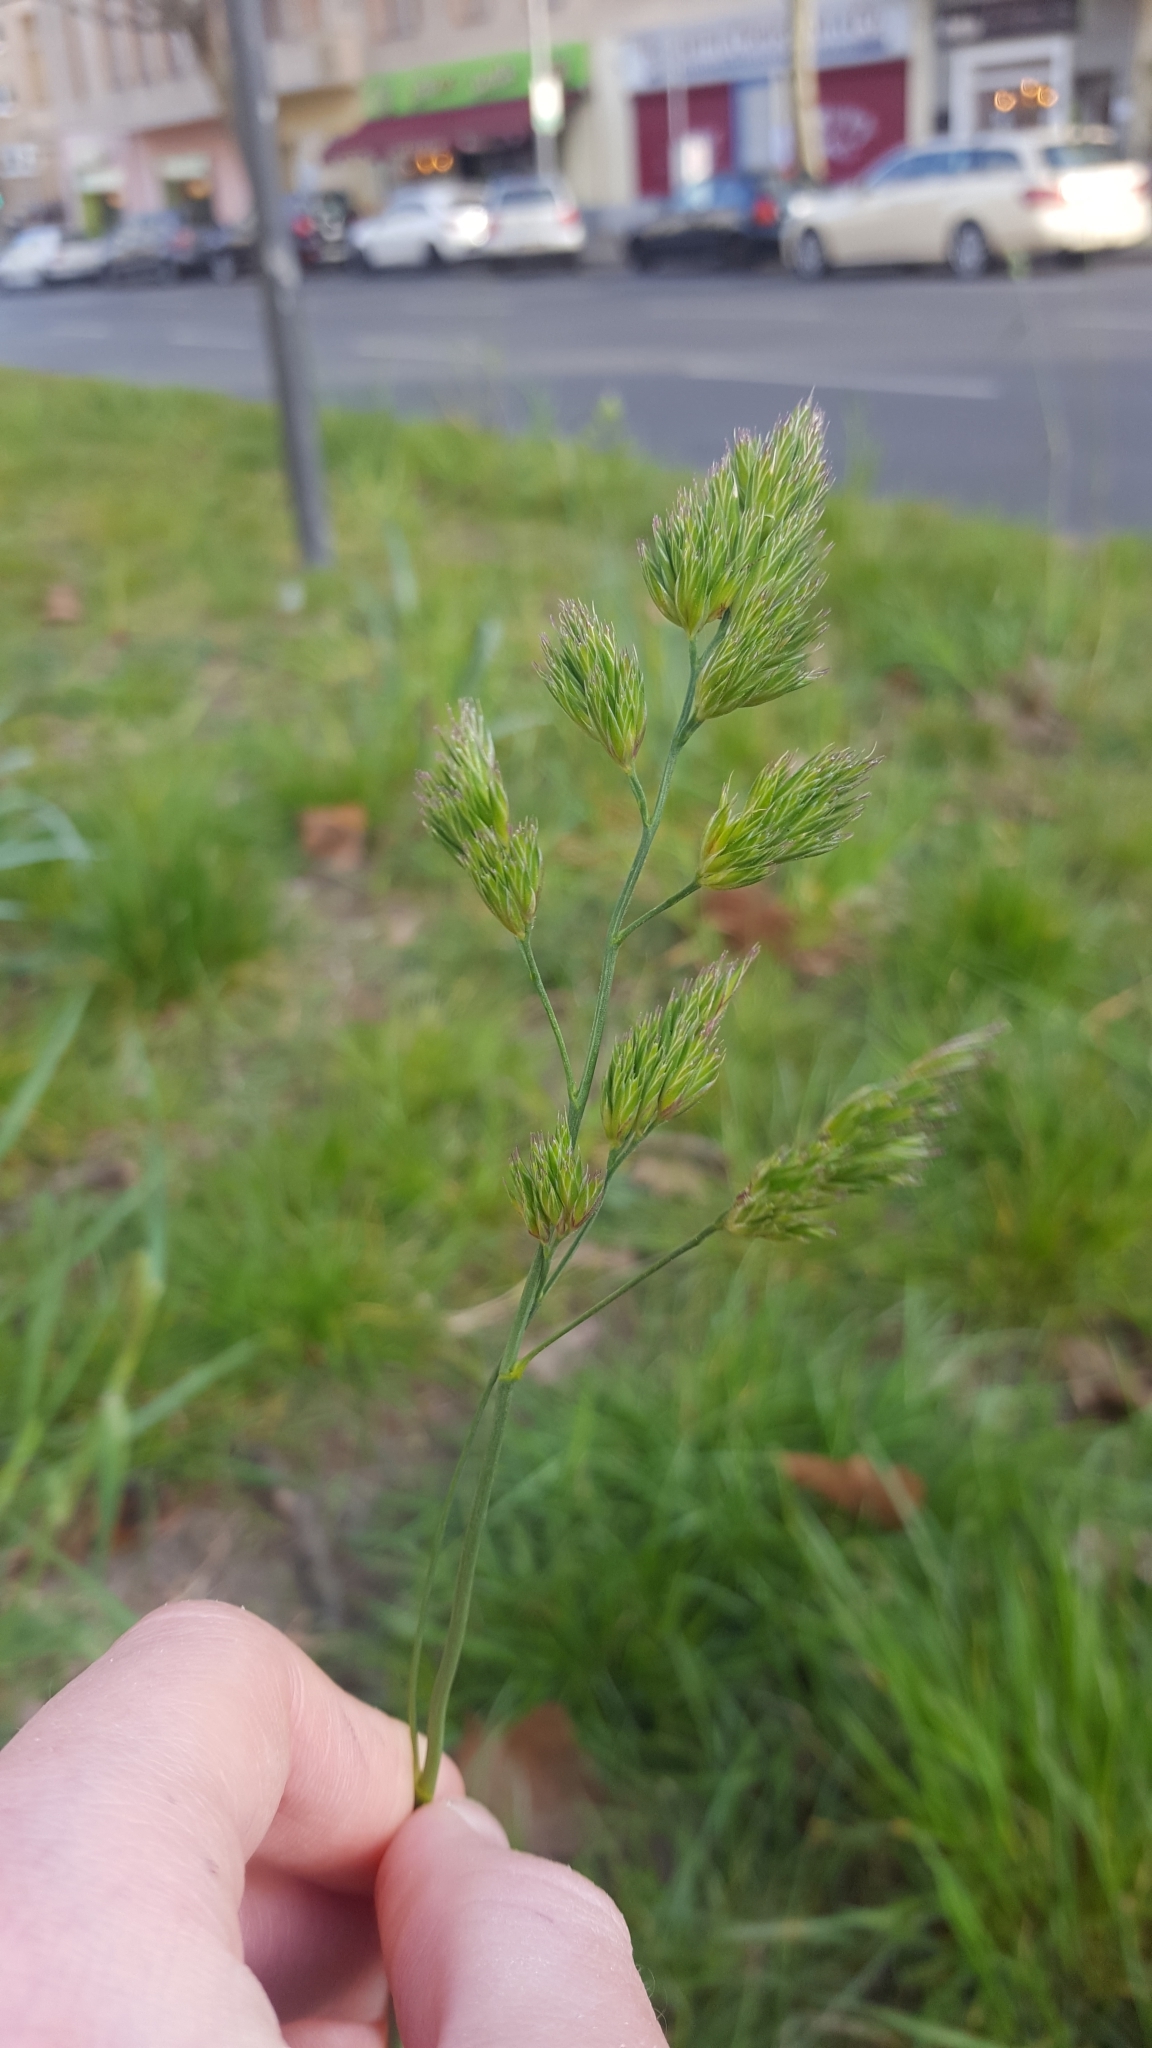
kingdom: Plantae
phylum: Tracheophyta
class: Liliopsida
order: Poales
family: Poaceae
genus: Dactylis
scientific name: Dactylis glomerata
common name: Orchardgrass
